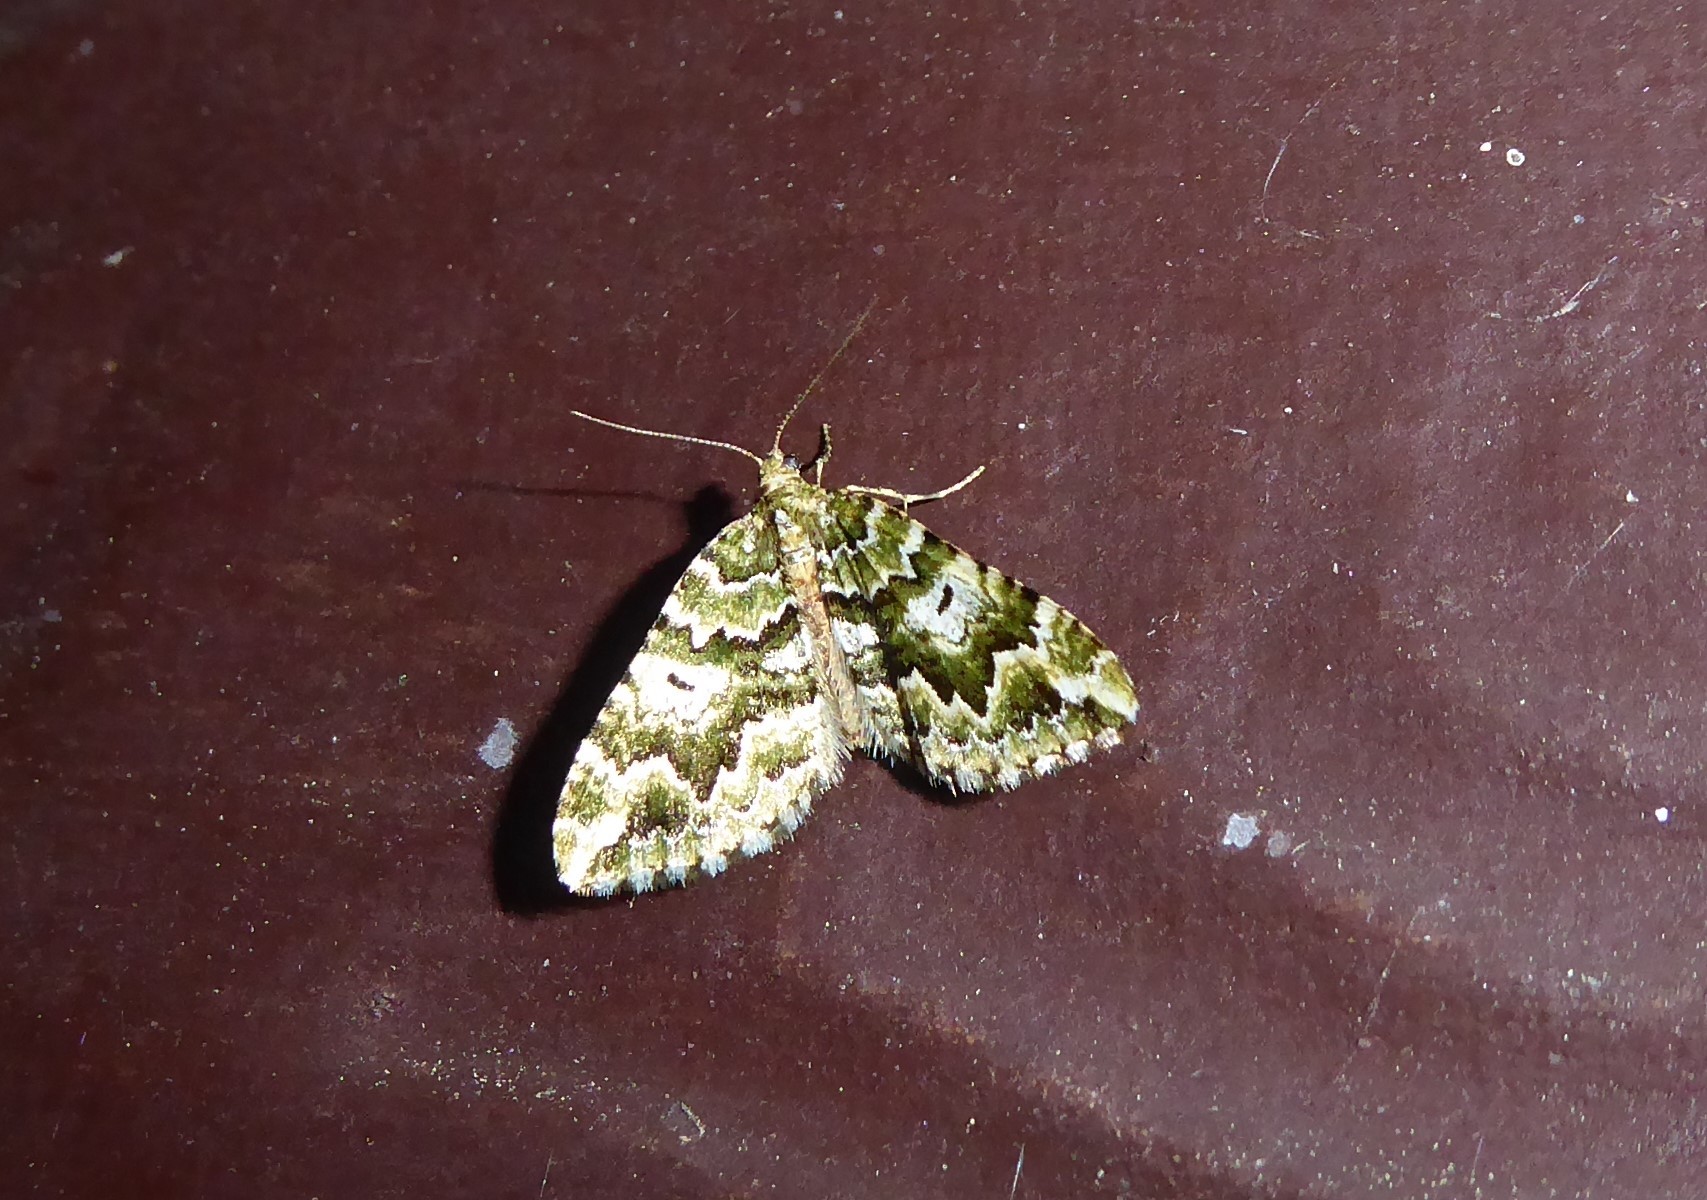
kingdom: Animalia
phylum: Arthropoda
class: Insecta
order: Lepidoptera
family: Geometridae
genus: Asaphodes
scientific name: Asaphodes beata
